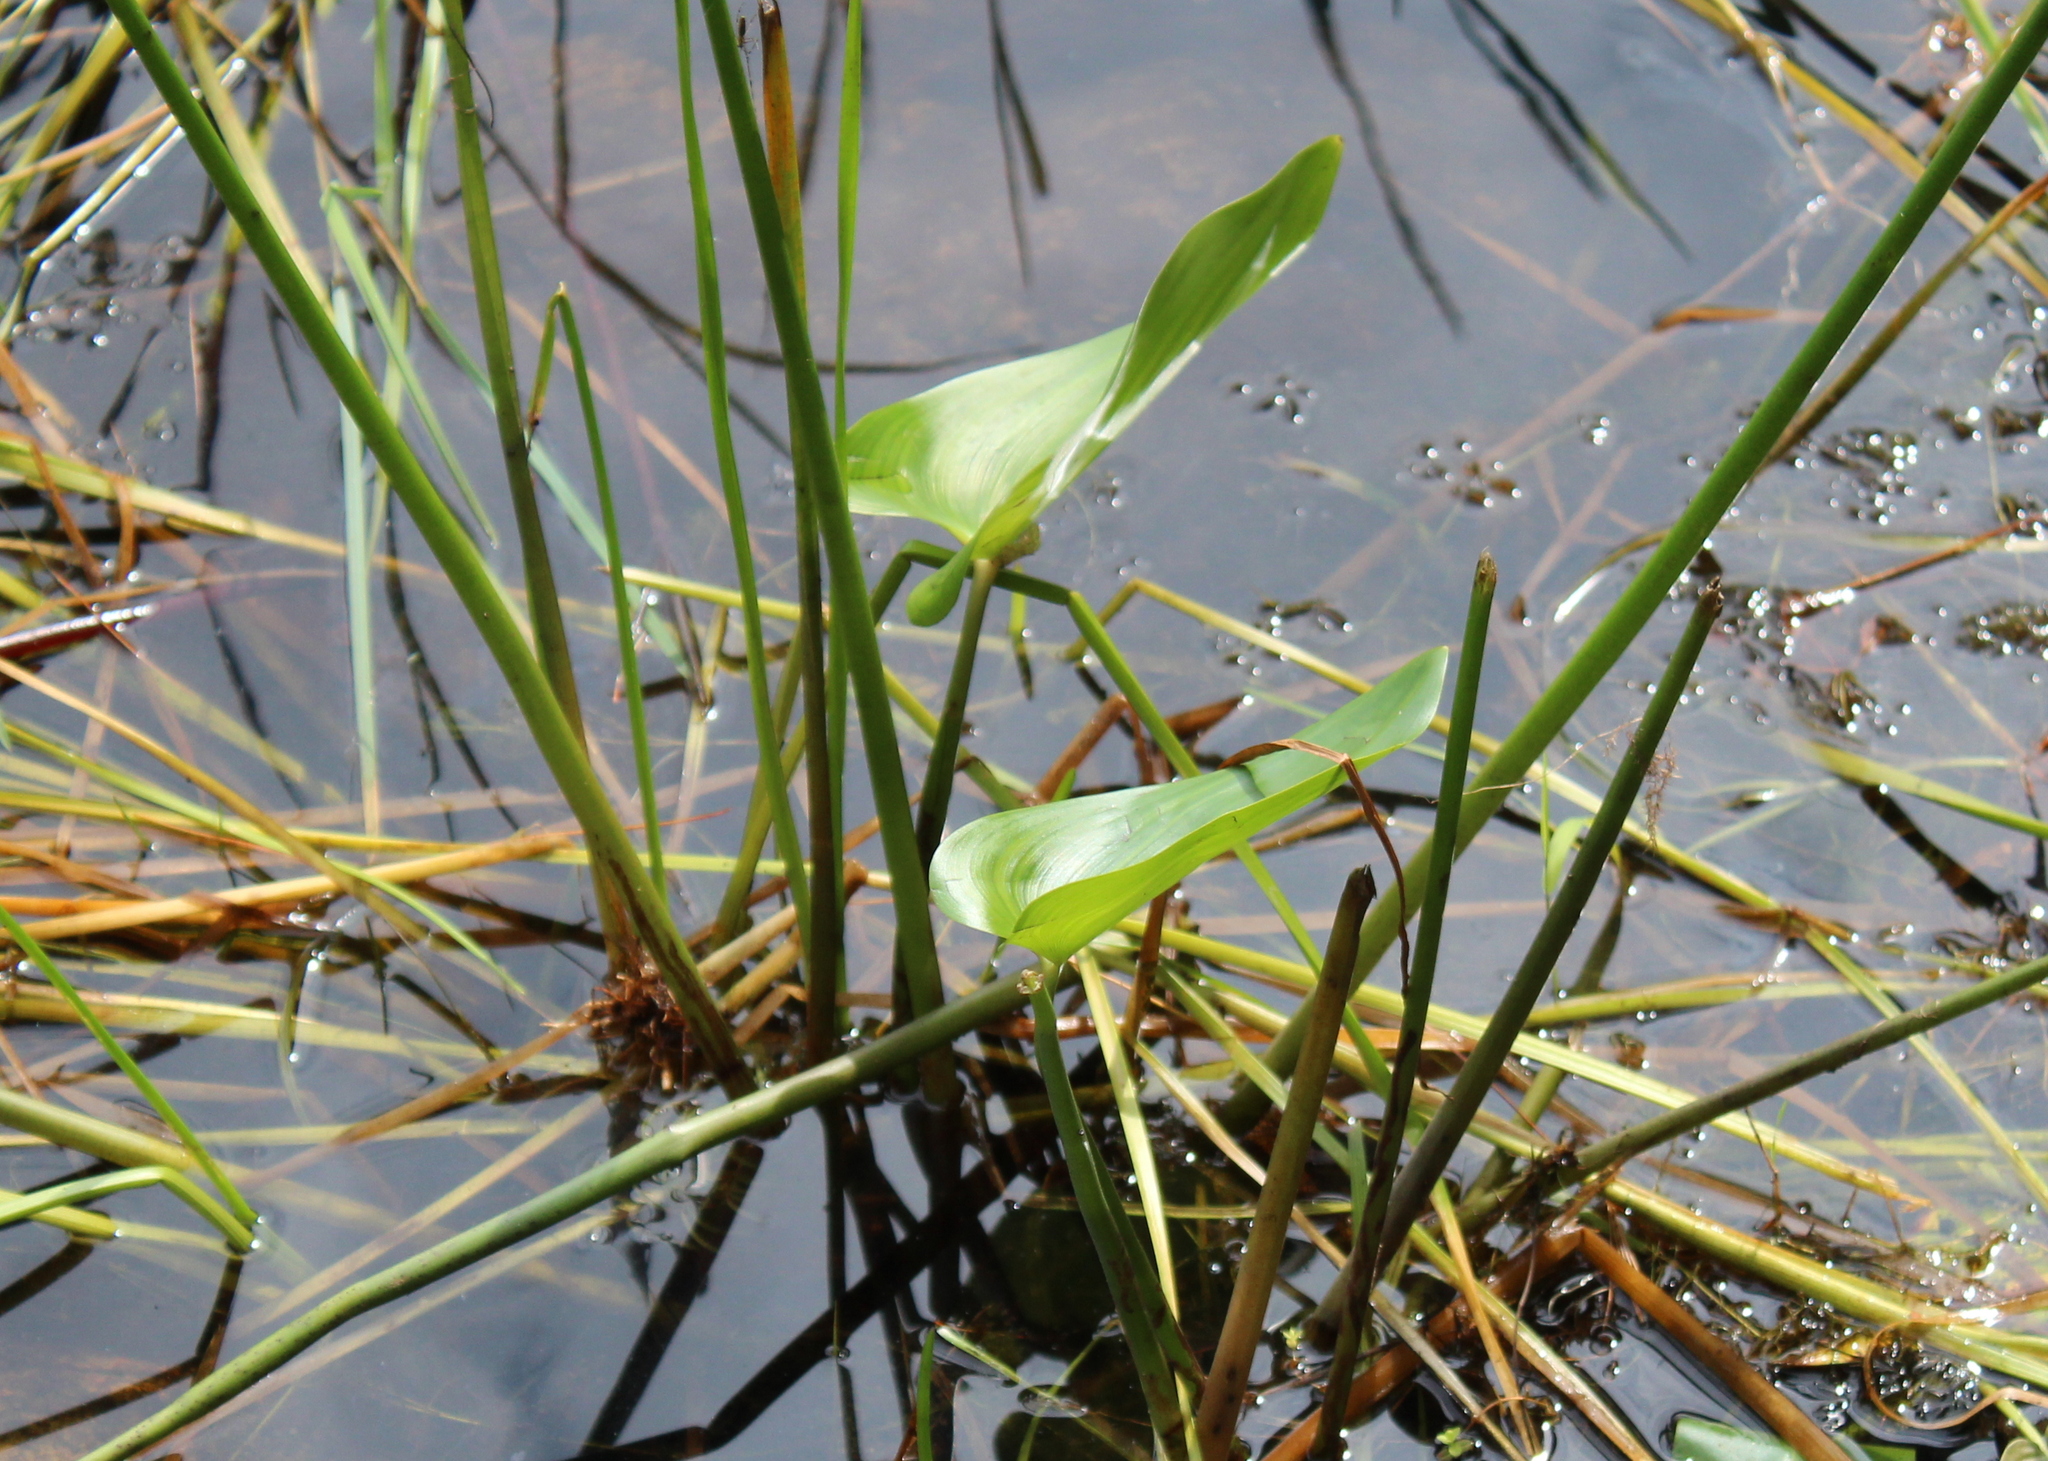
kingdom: Plantae
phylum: Tracheophyta
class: Liliopsida
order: Commelinales
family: Pontederiaceae
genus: Pontederia
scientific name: Pontederia cordata
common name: Pickerelweed
